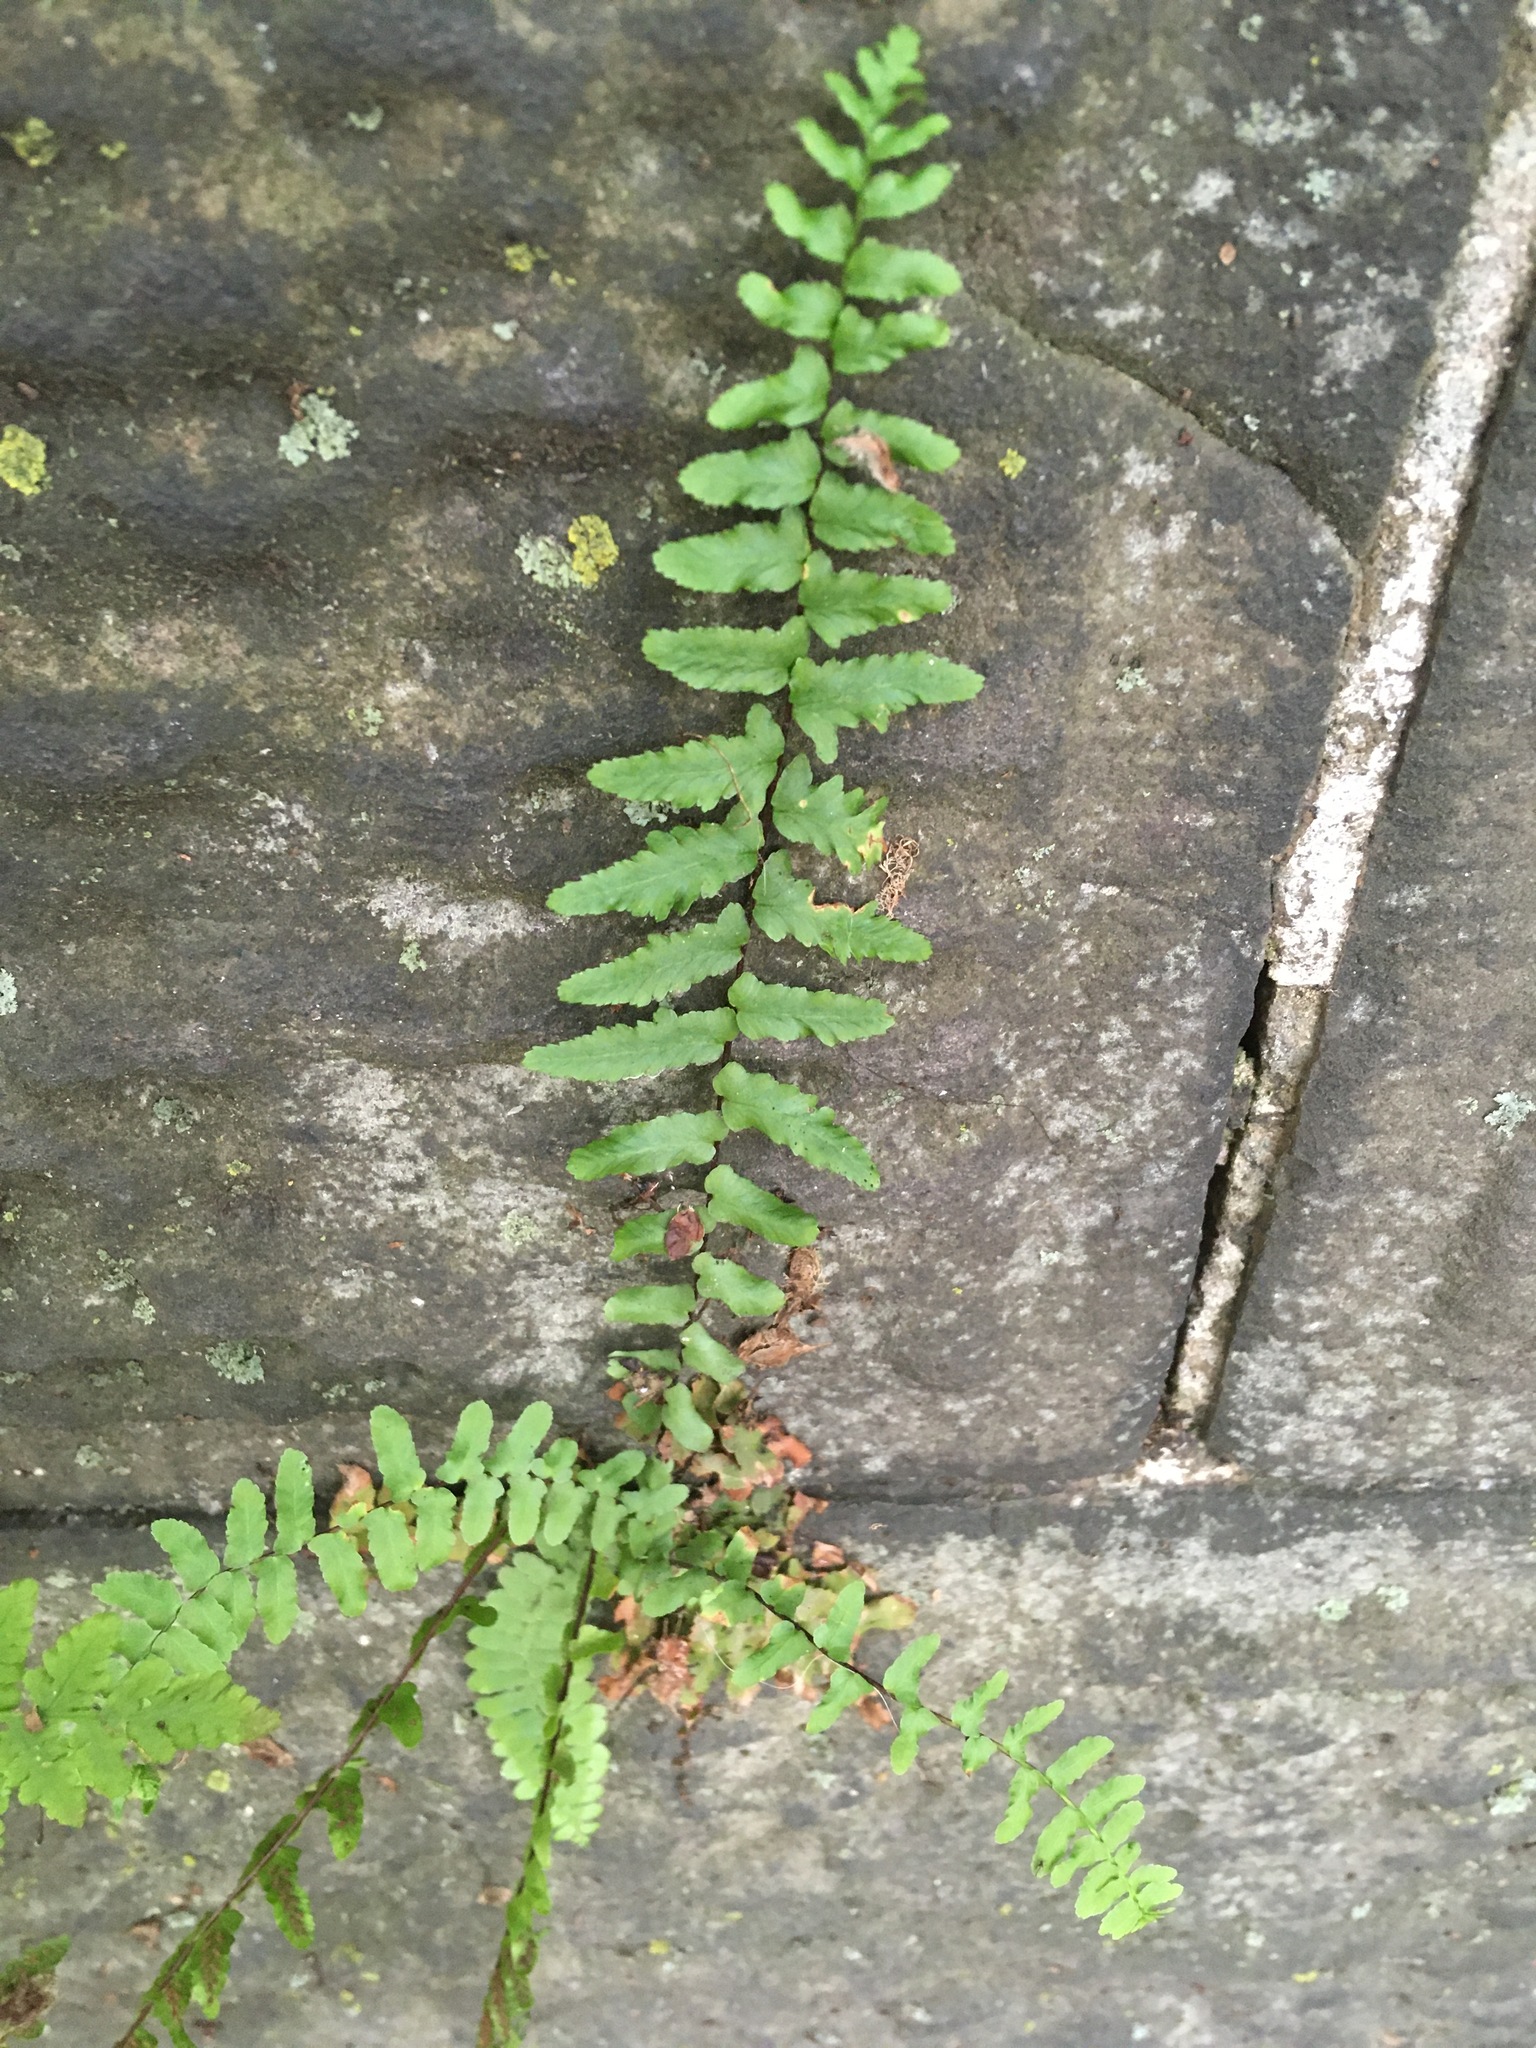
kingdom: Plantae
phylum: Tracheophyta
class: Polypodiopsida
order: Polypodiales
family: Aspleniaceae
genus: Asplenium
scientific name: Asplenium platyneuron
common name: Ebony spleenwort
